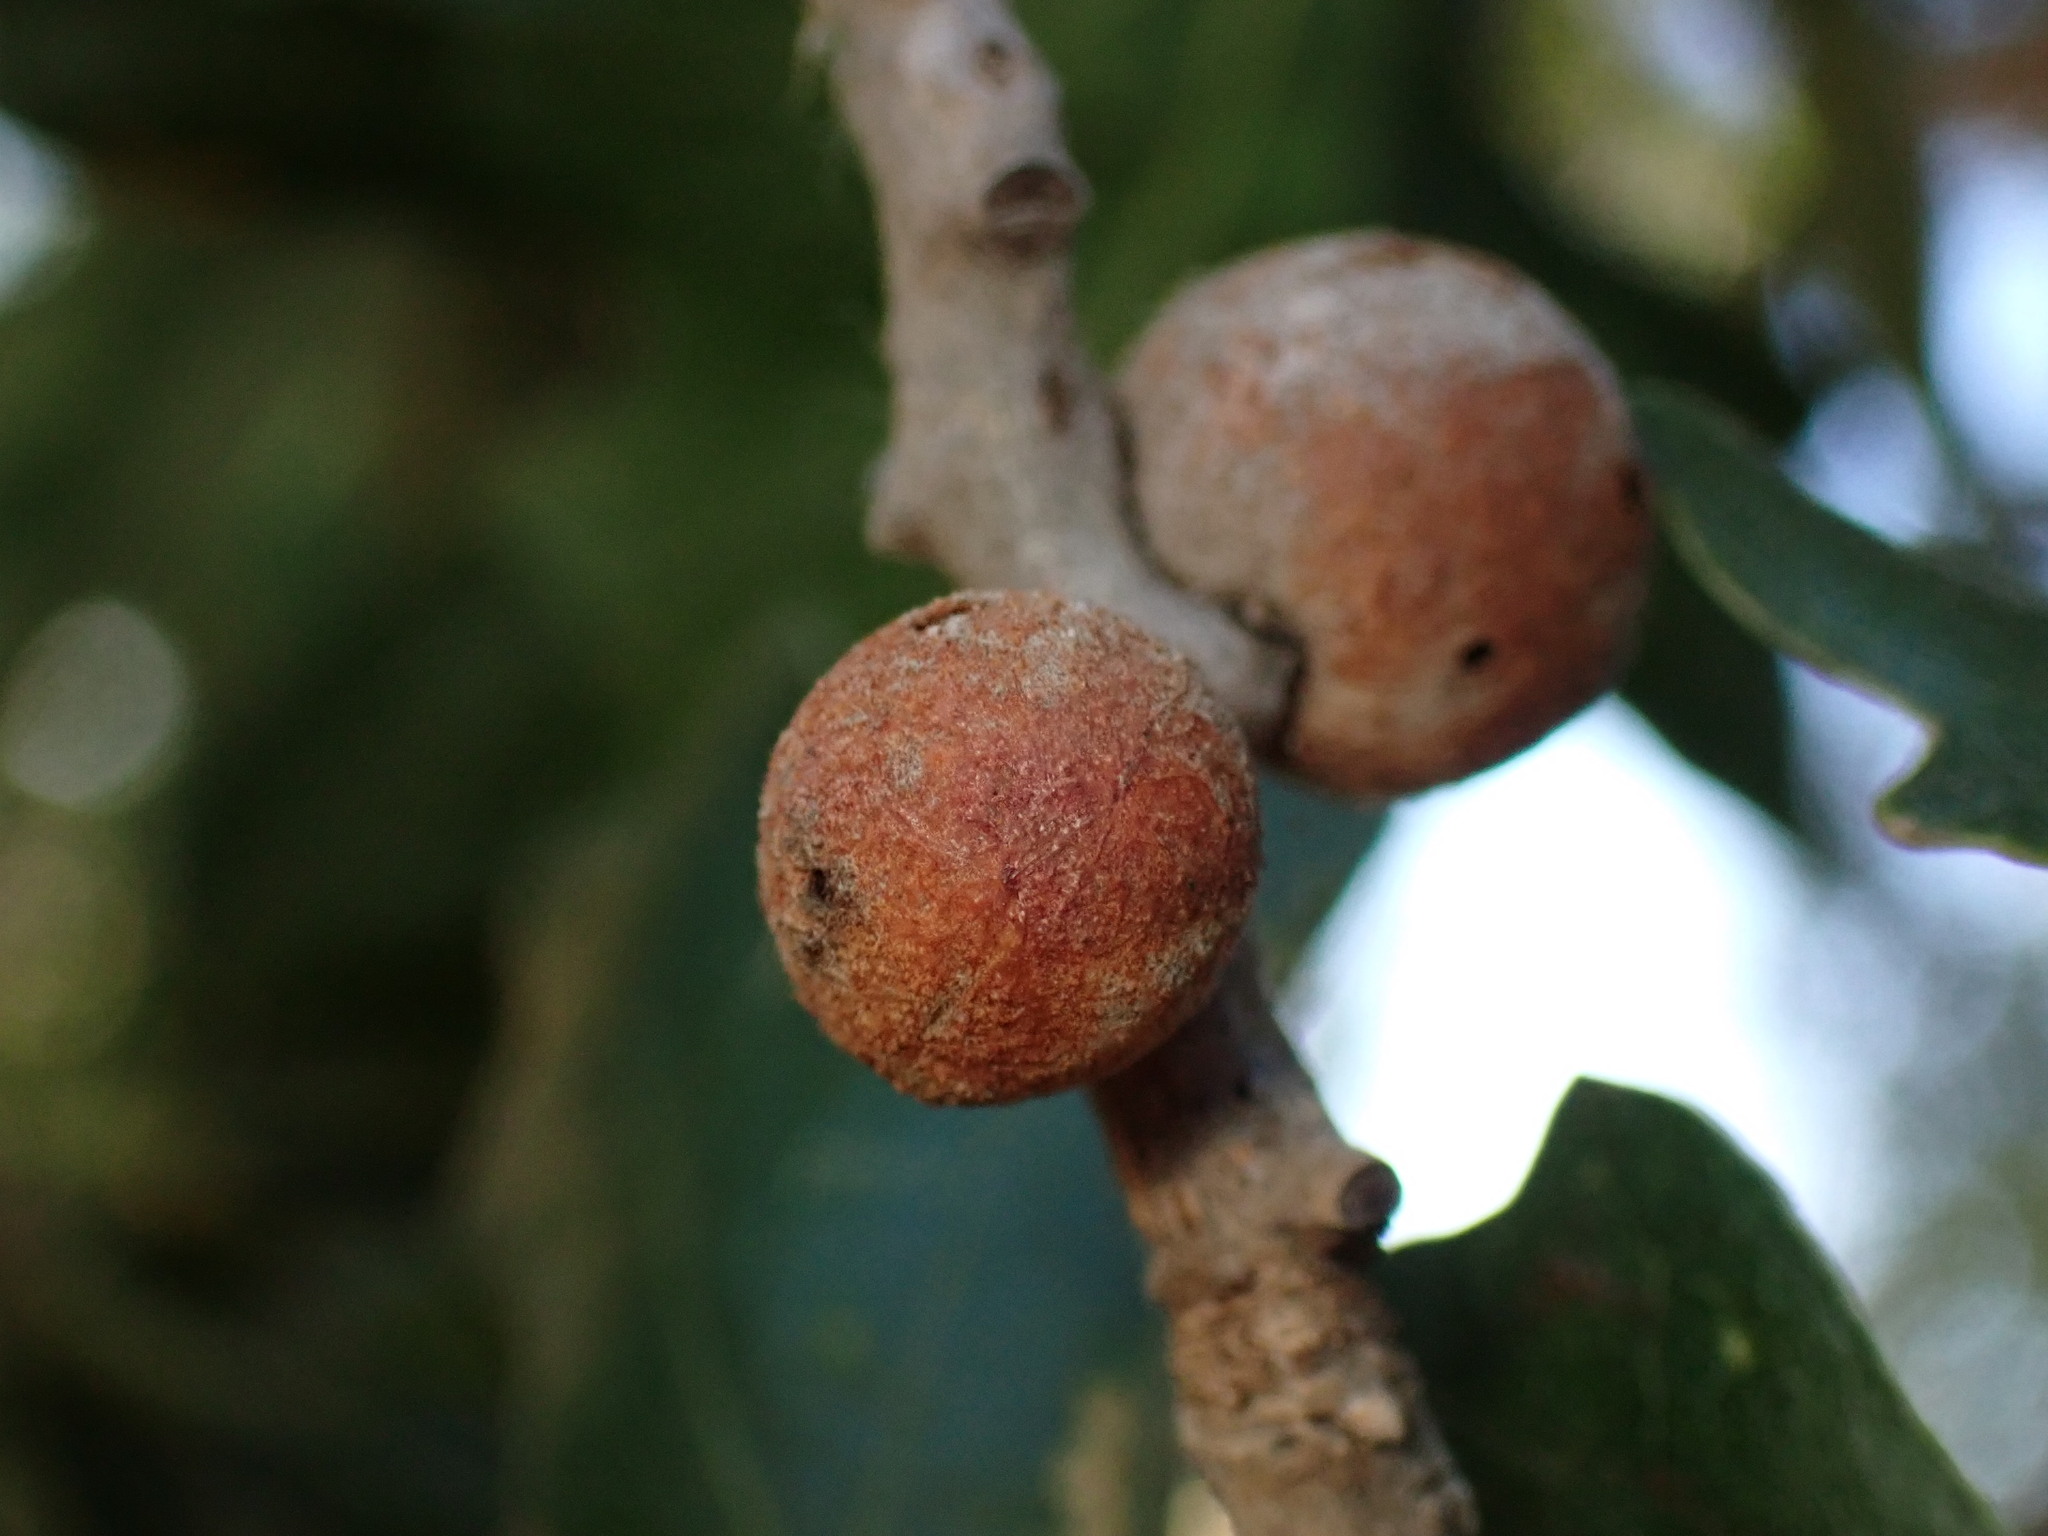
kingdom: Animalia
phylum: Arthropoda
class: Insecta
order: Hymenoptera
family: Cynipidae
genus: Burnettweldia
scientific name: Burnettweldia
